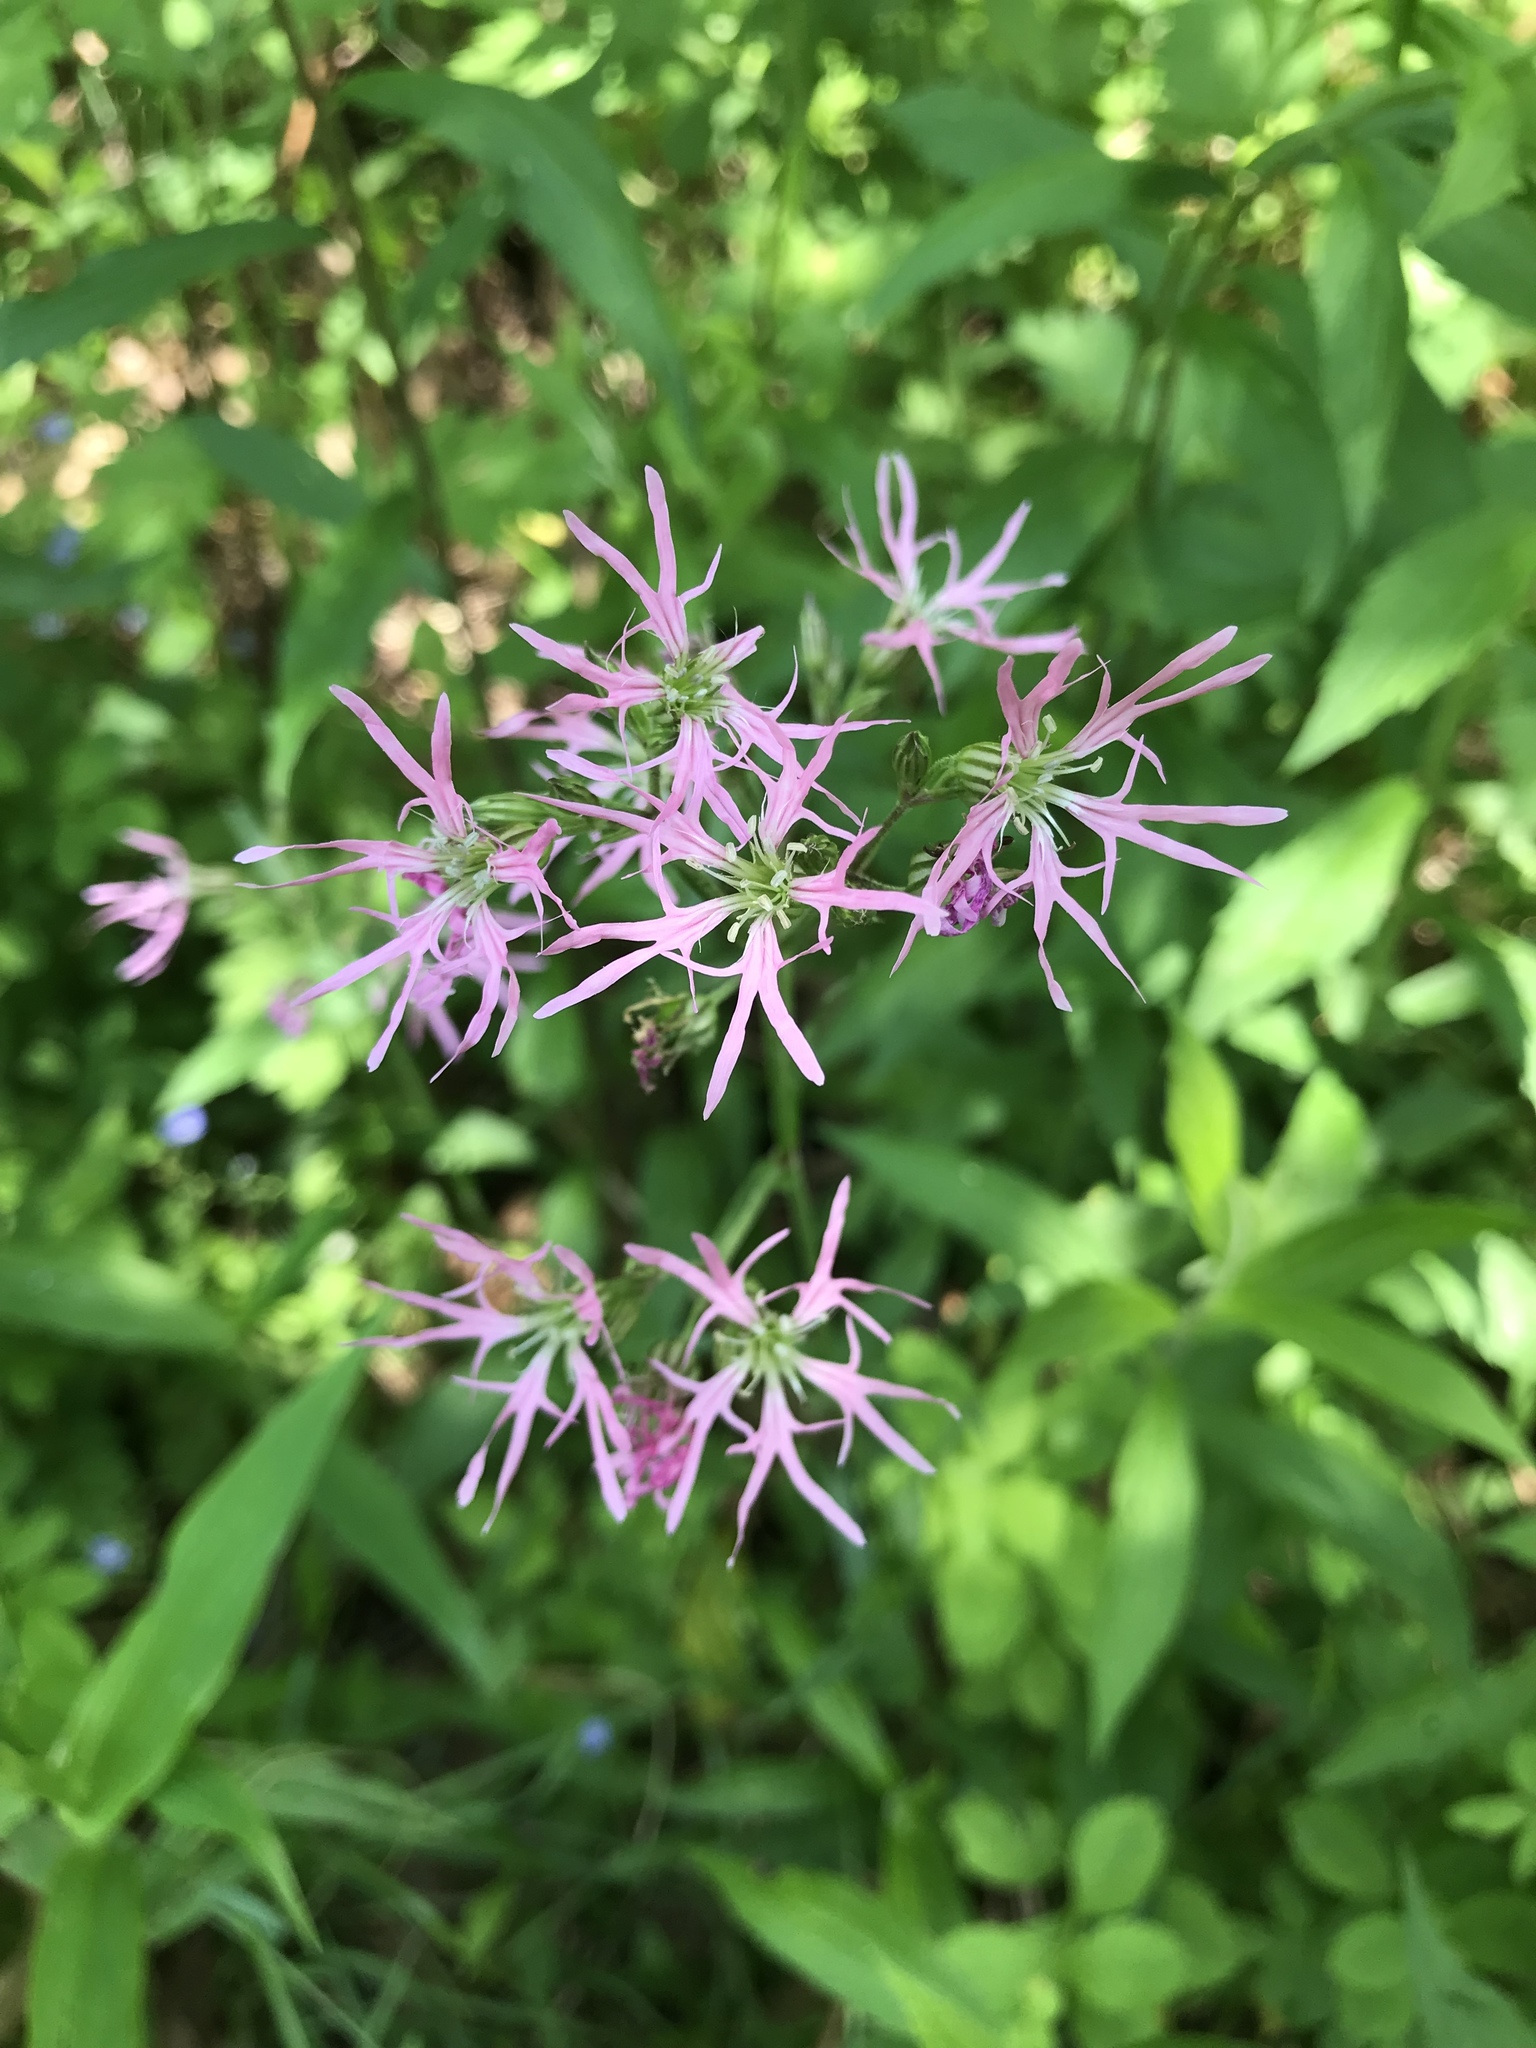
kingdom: Plantae
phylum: Tracheophyta
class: Magnoliopsida
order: Caryophyllales
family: Caryophyllaceae
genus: Silene
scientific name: Silene flos-cuculi
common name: Ragged-robin
